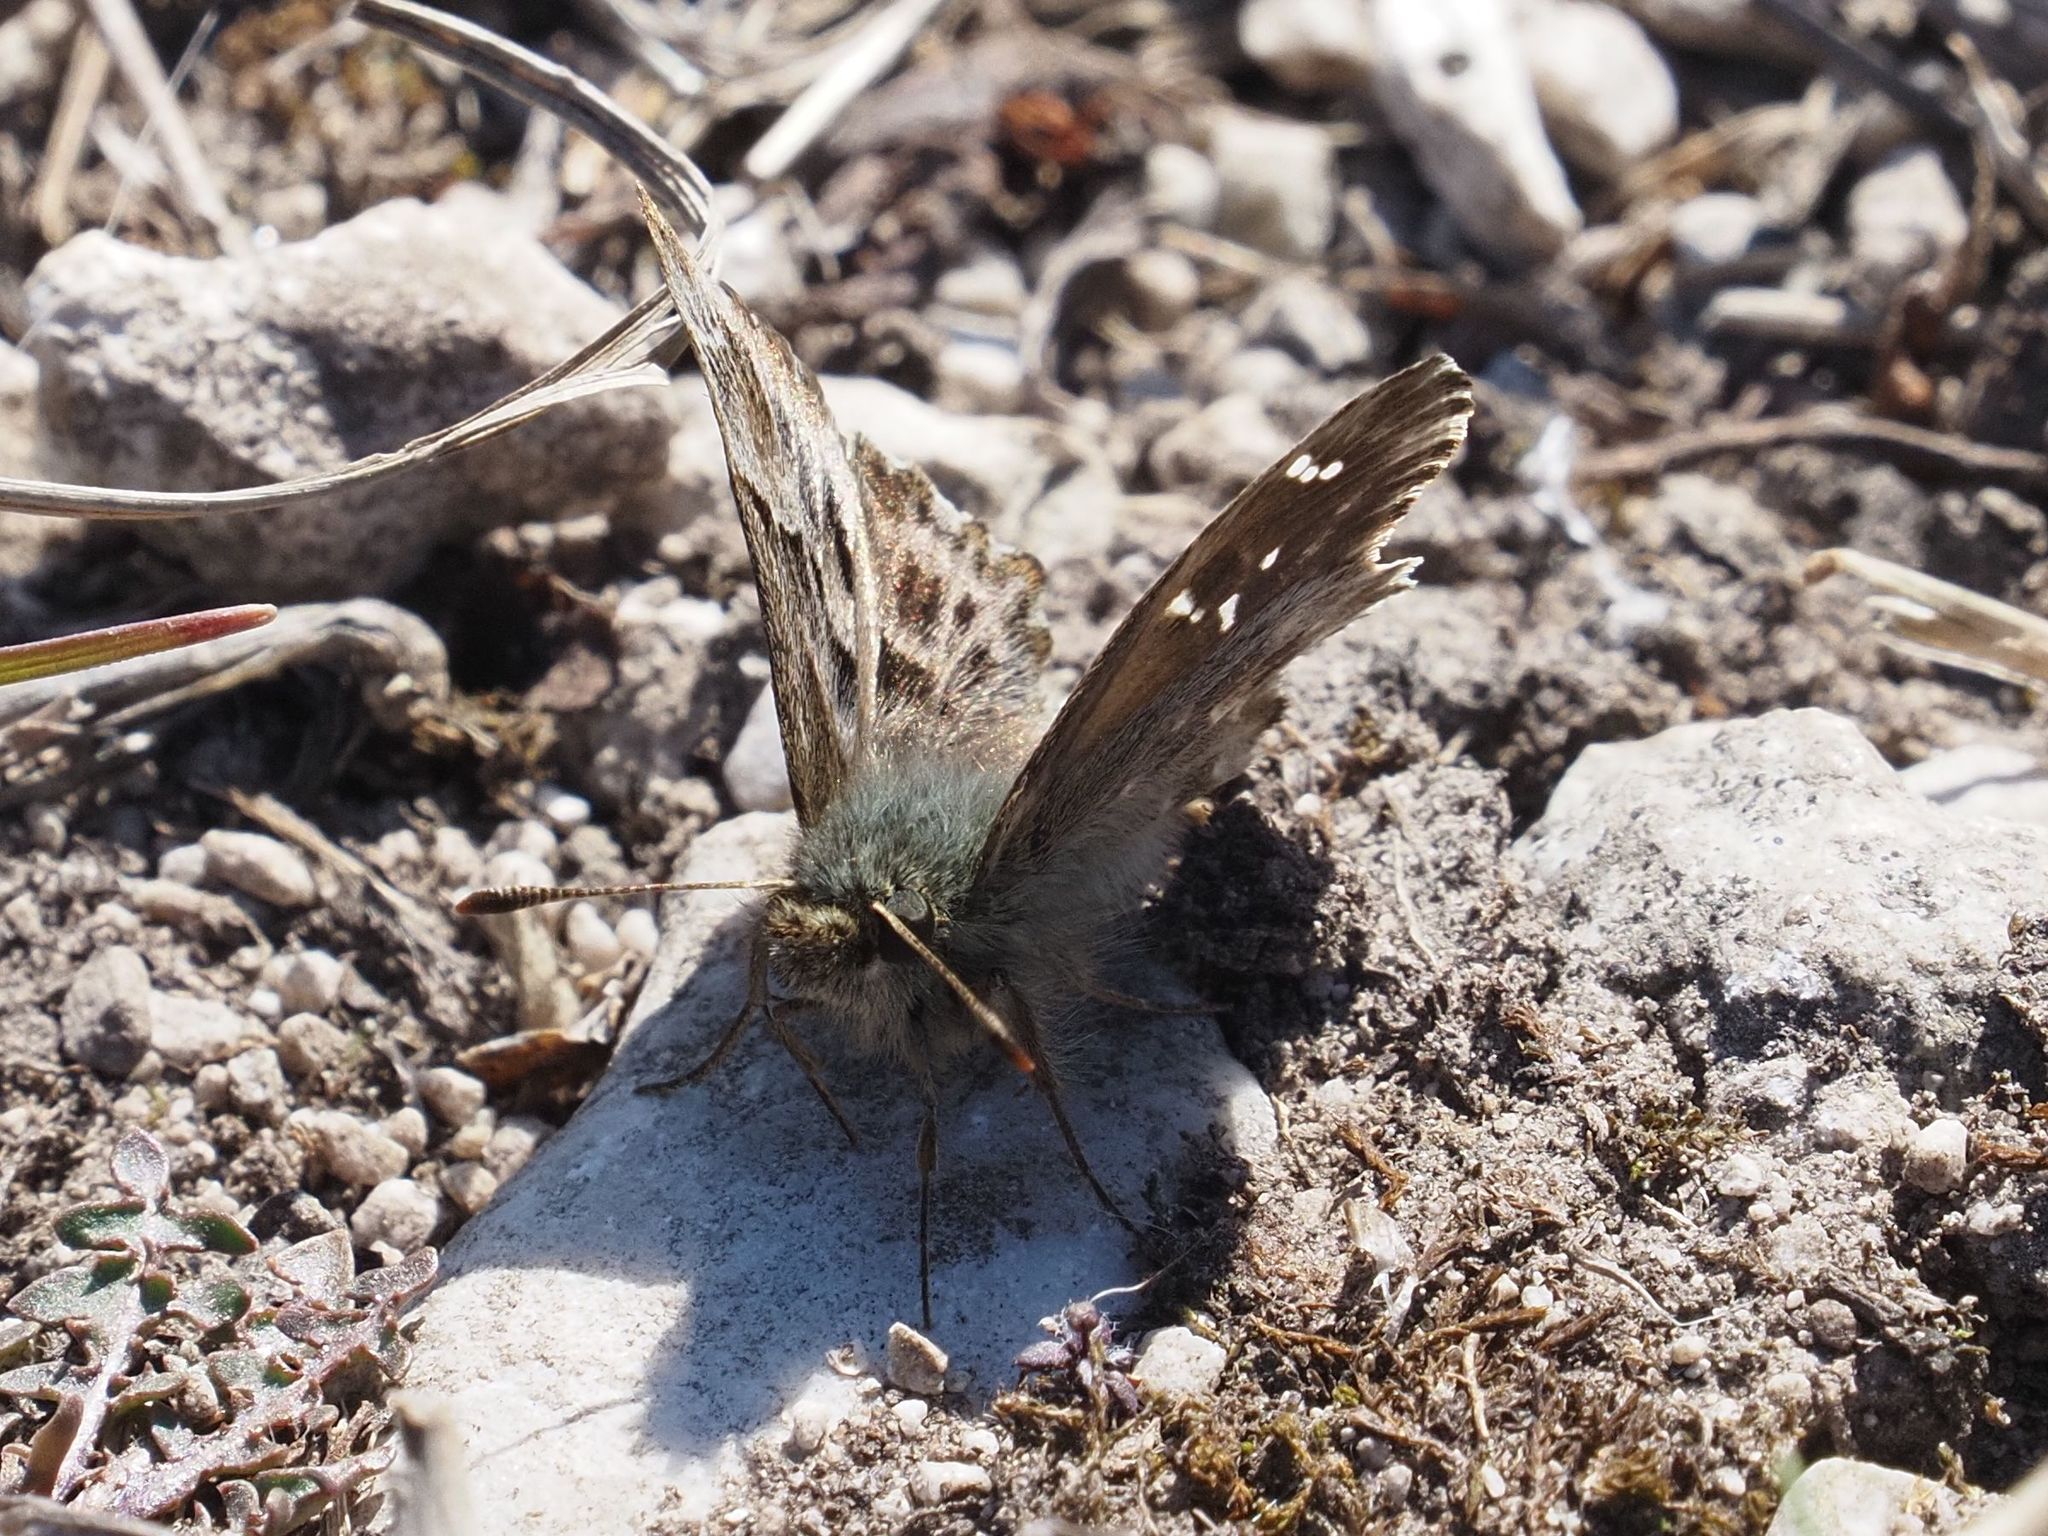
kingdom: Animalia
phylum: Arthropoda
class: Insecta
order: Lepidoptera
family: Hesperiidae
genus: Carcharodus
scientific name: Carcharodus alceae
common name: Mallow skipper
